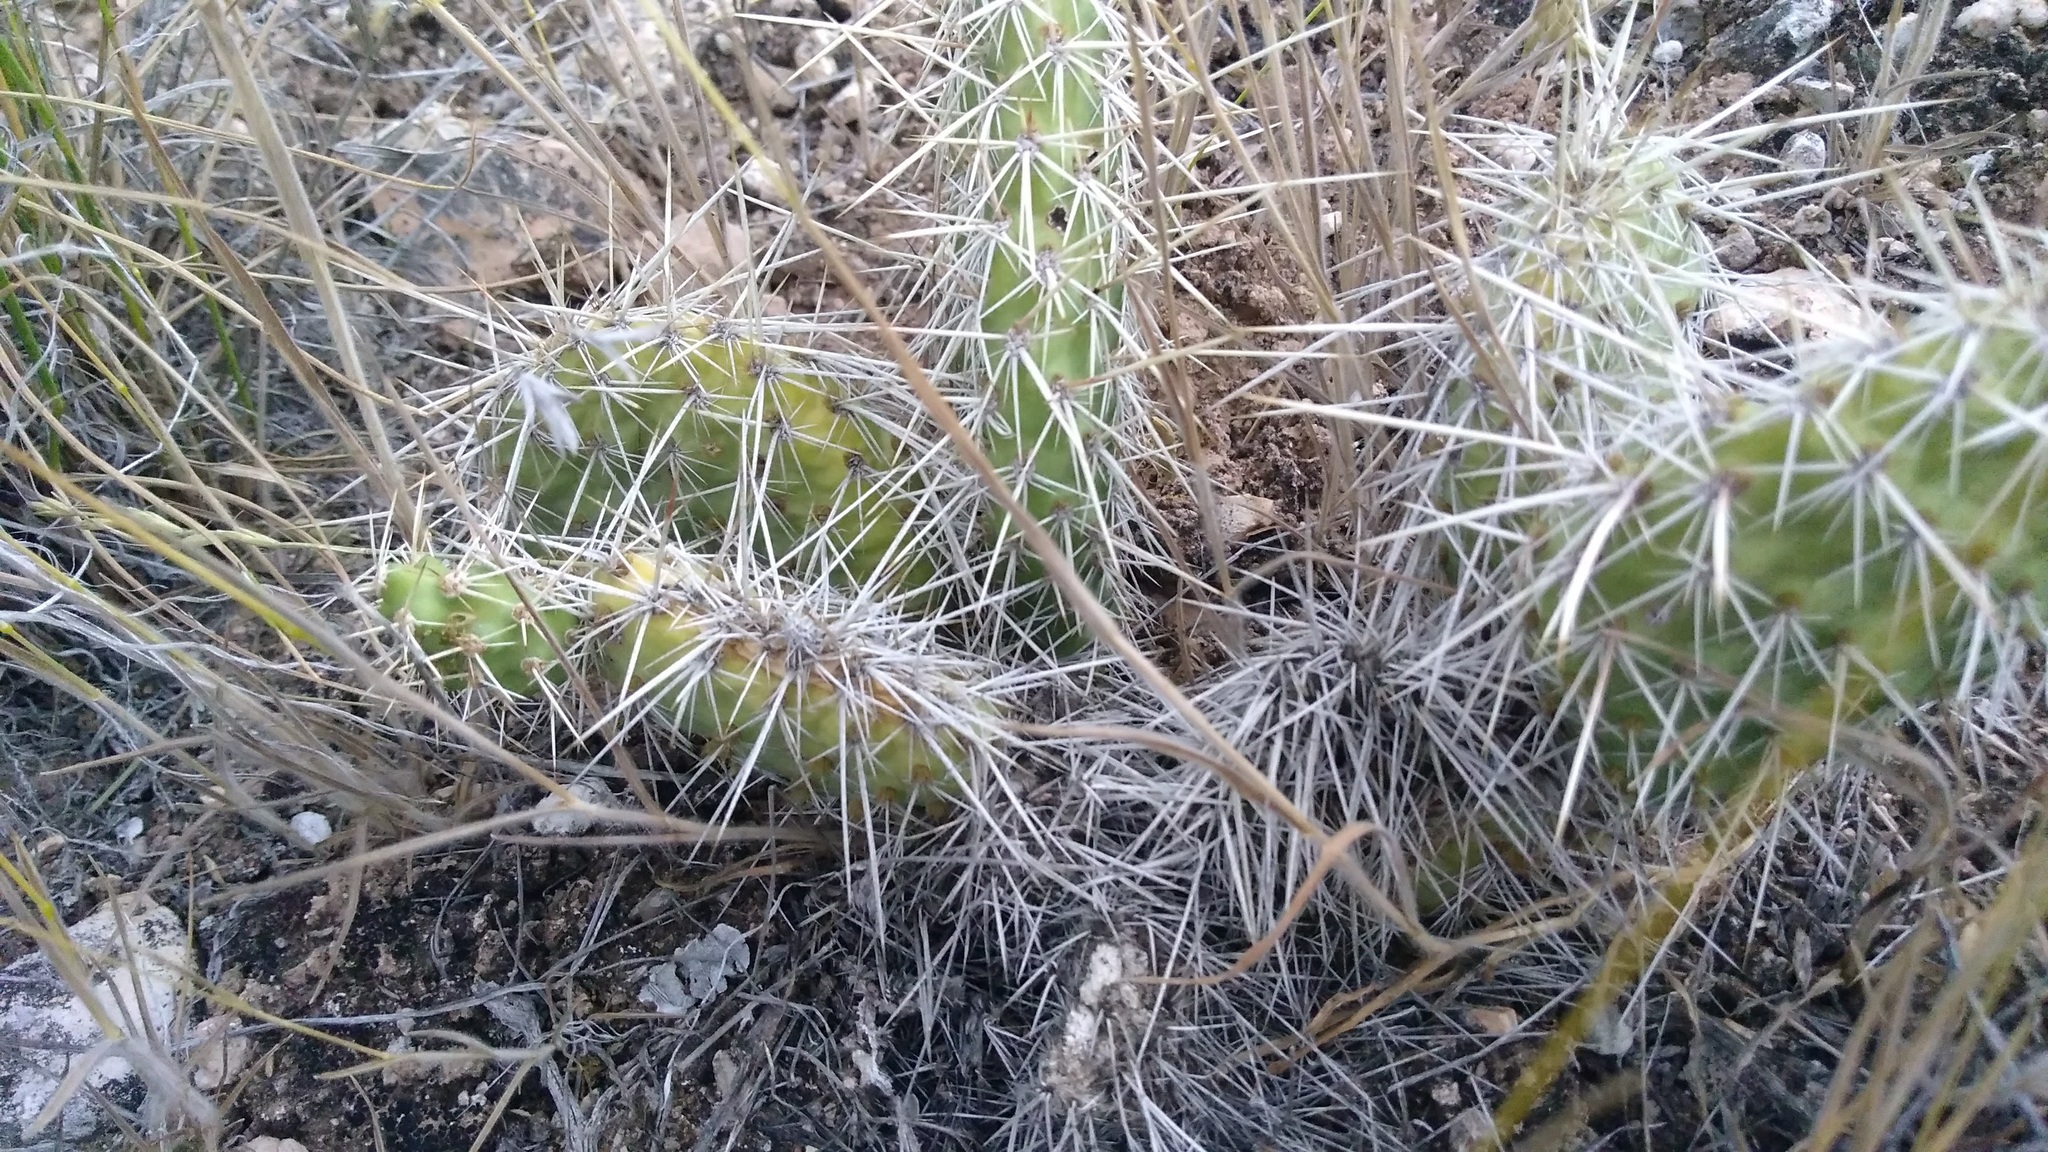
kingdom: Plantae
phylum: Tracheophyta
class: Magnoliopsida
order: Caryophyllales
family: Cactaceae
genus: Opuntia
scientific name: Opuntia polyacantha
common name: Plains prickly-pear
